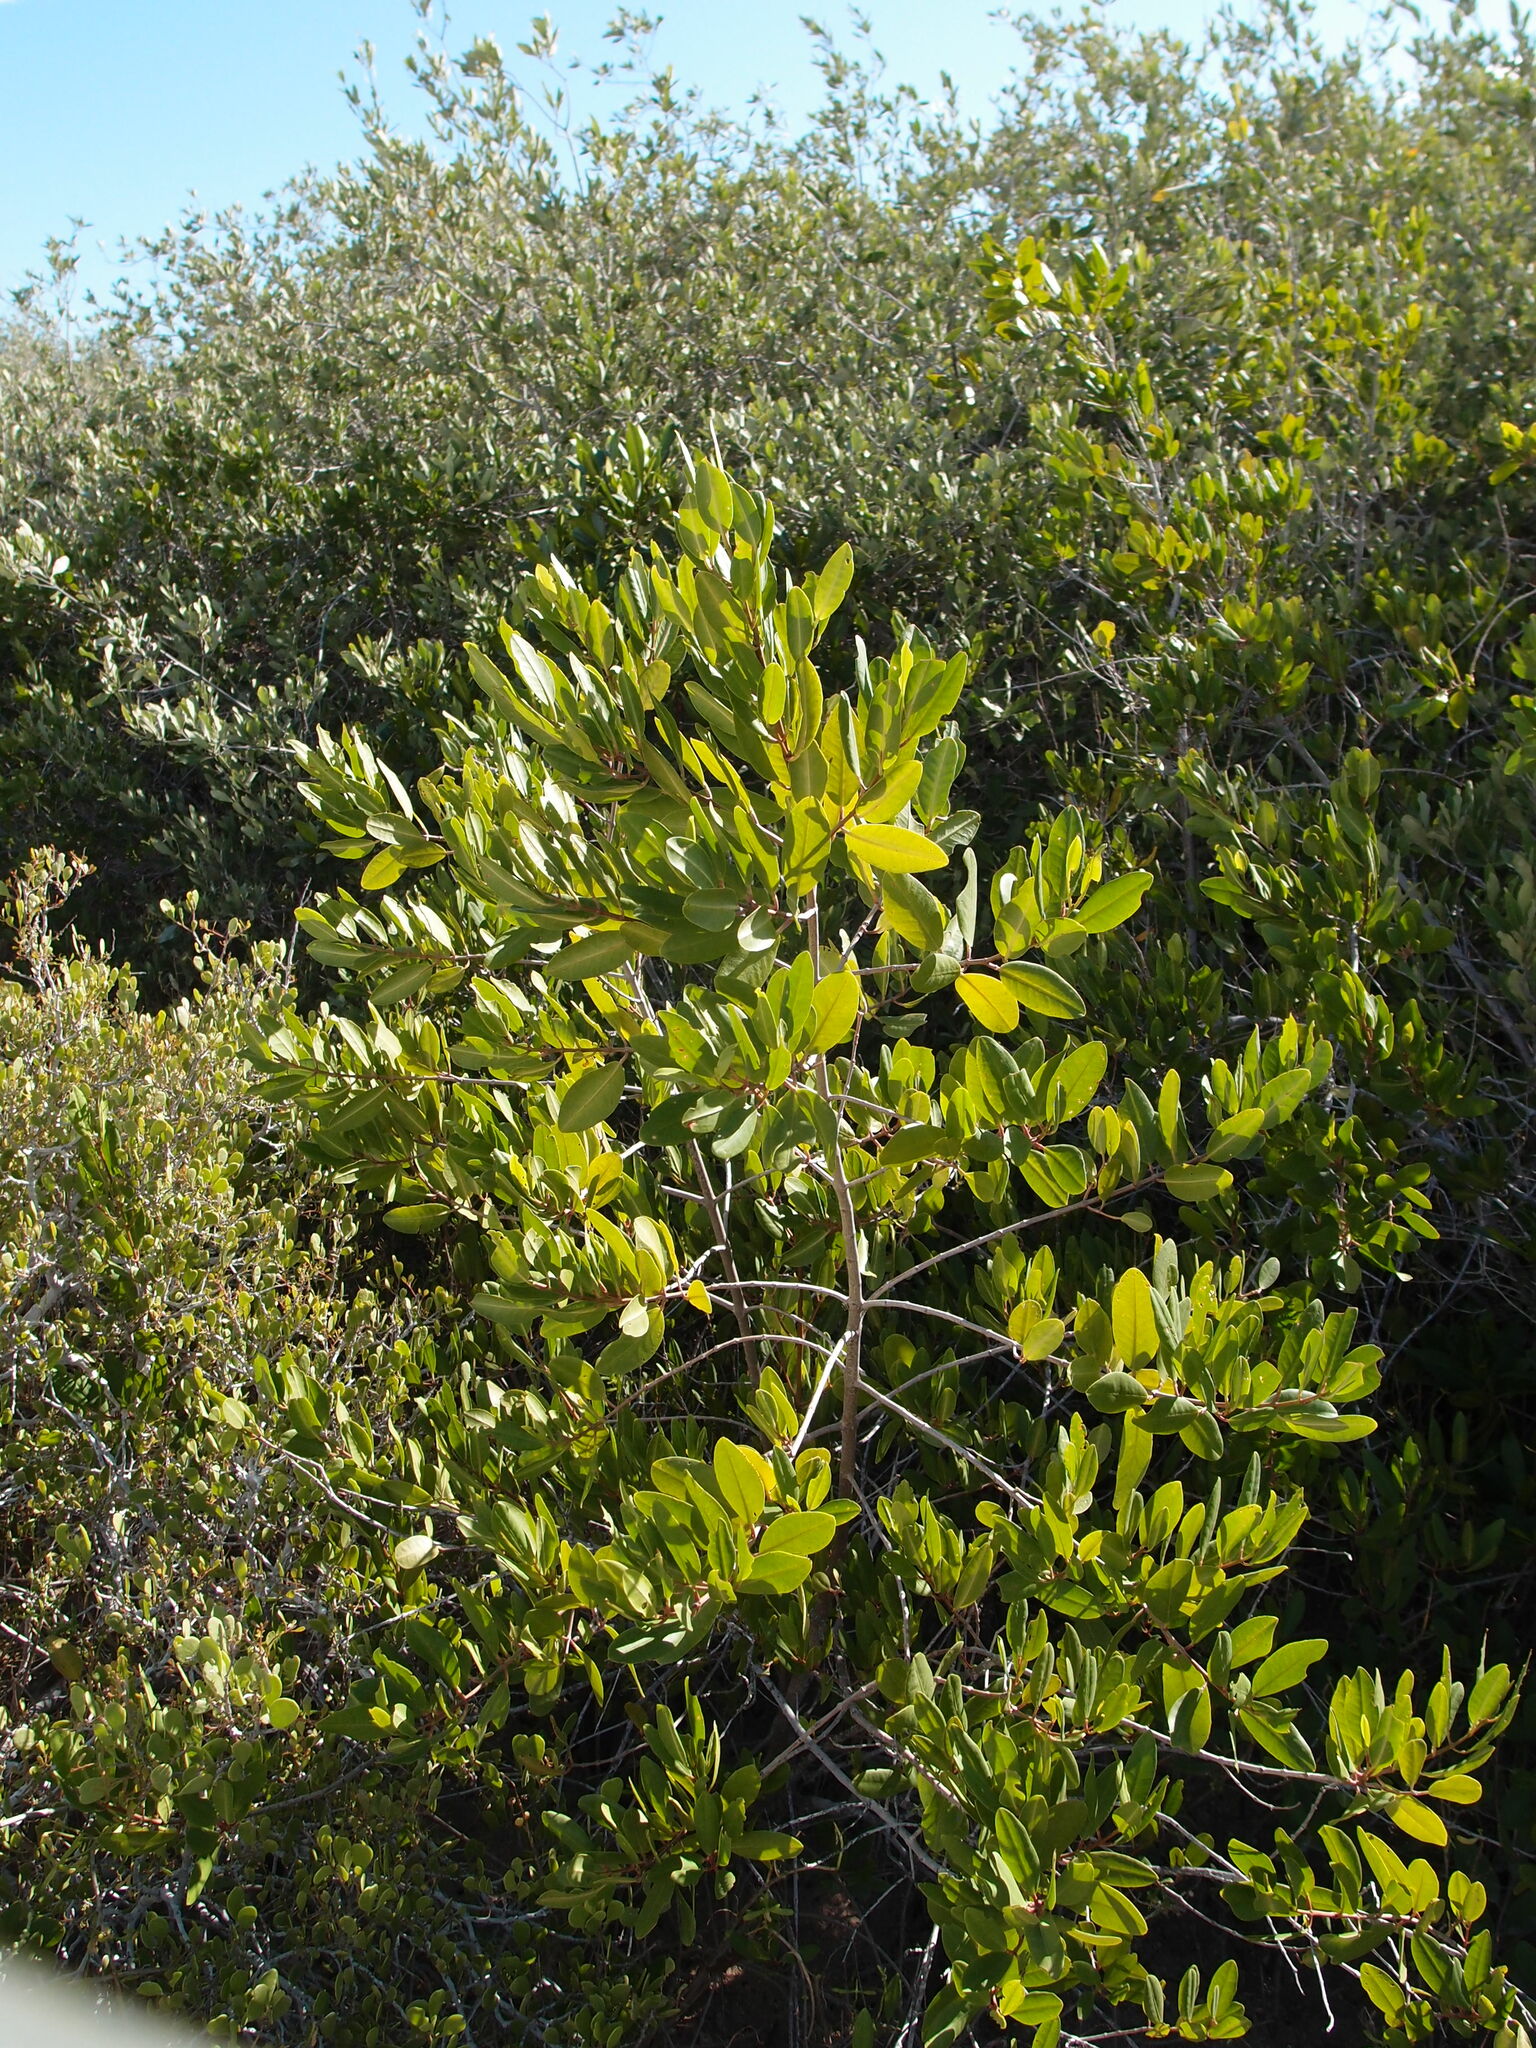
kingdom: Plantae
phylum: Tracheophyta
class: Magnoliopsida
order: Myrtales
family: Combretaceae
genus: Laguncularia
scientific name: Laguncularia racemosa
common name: White mangrove
